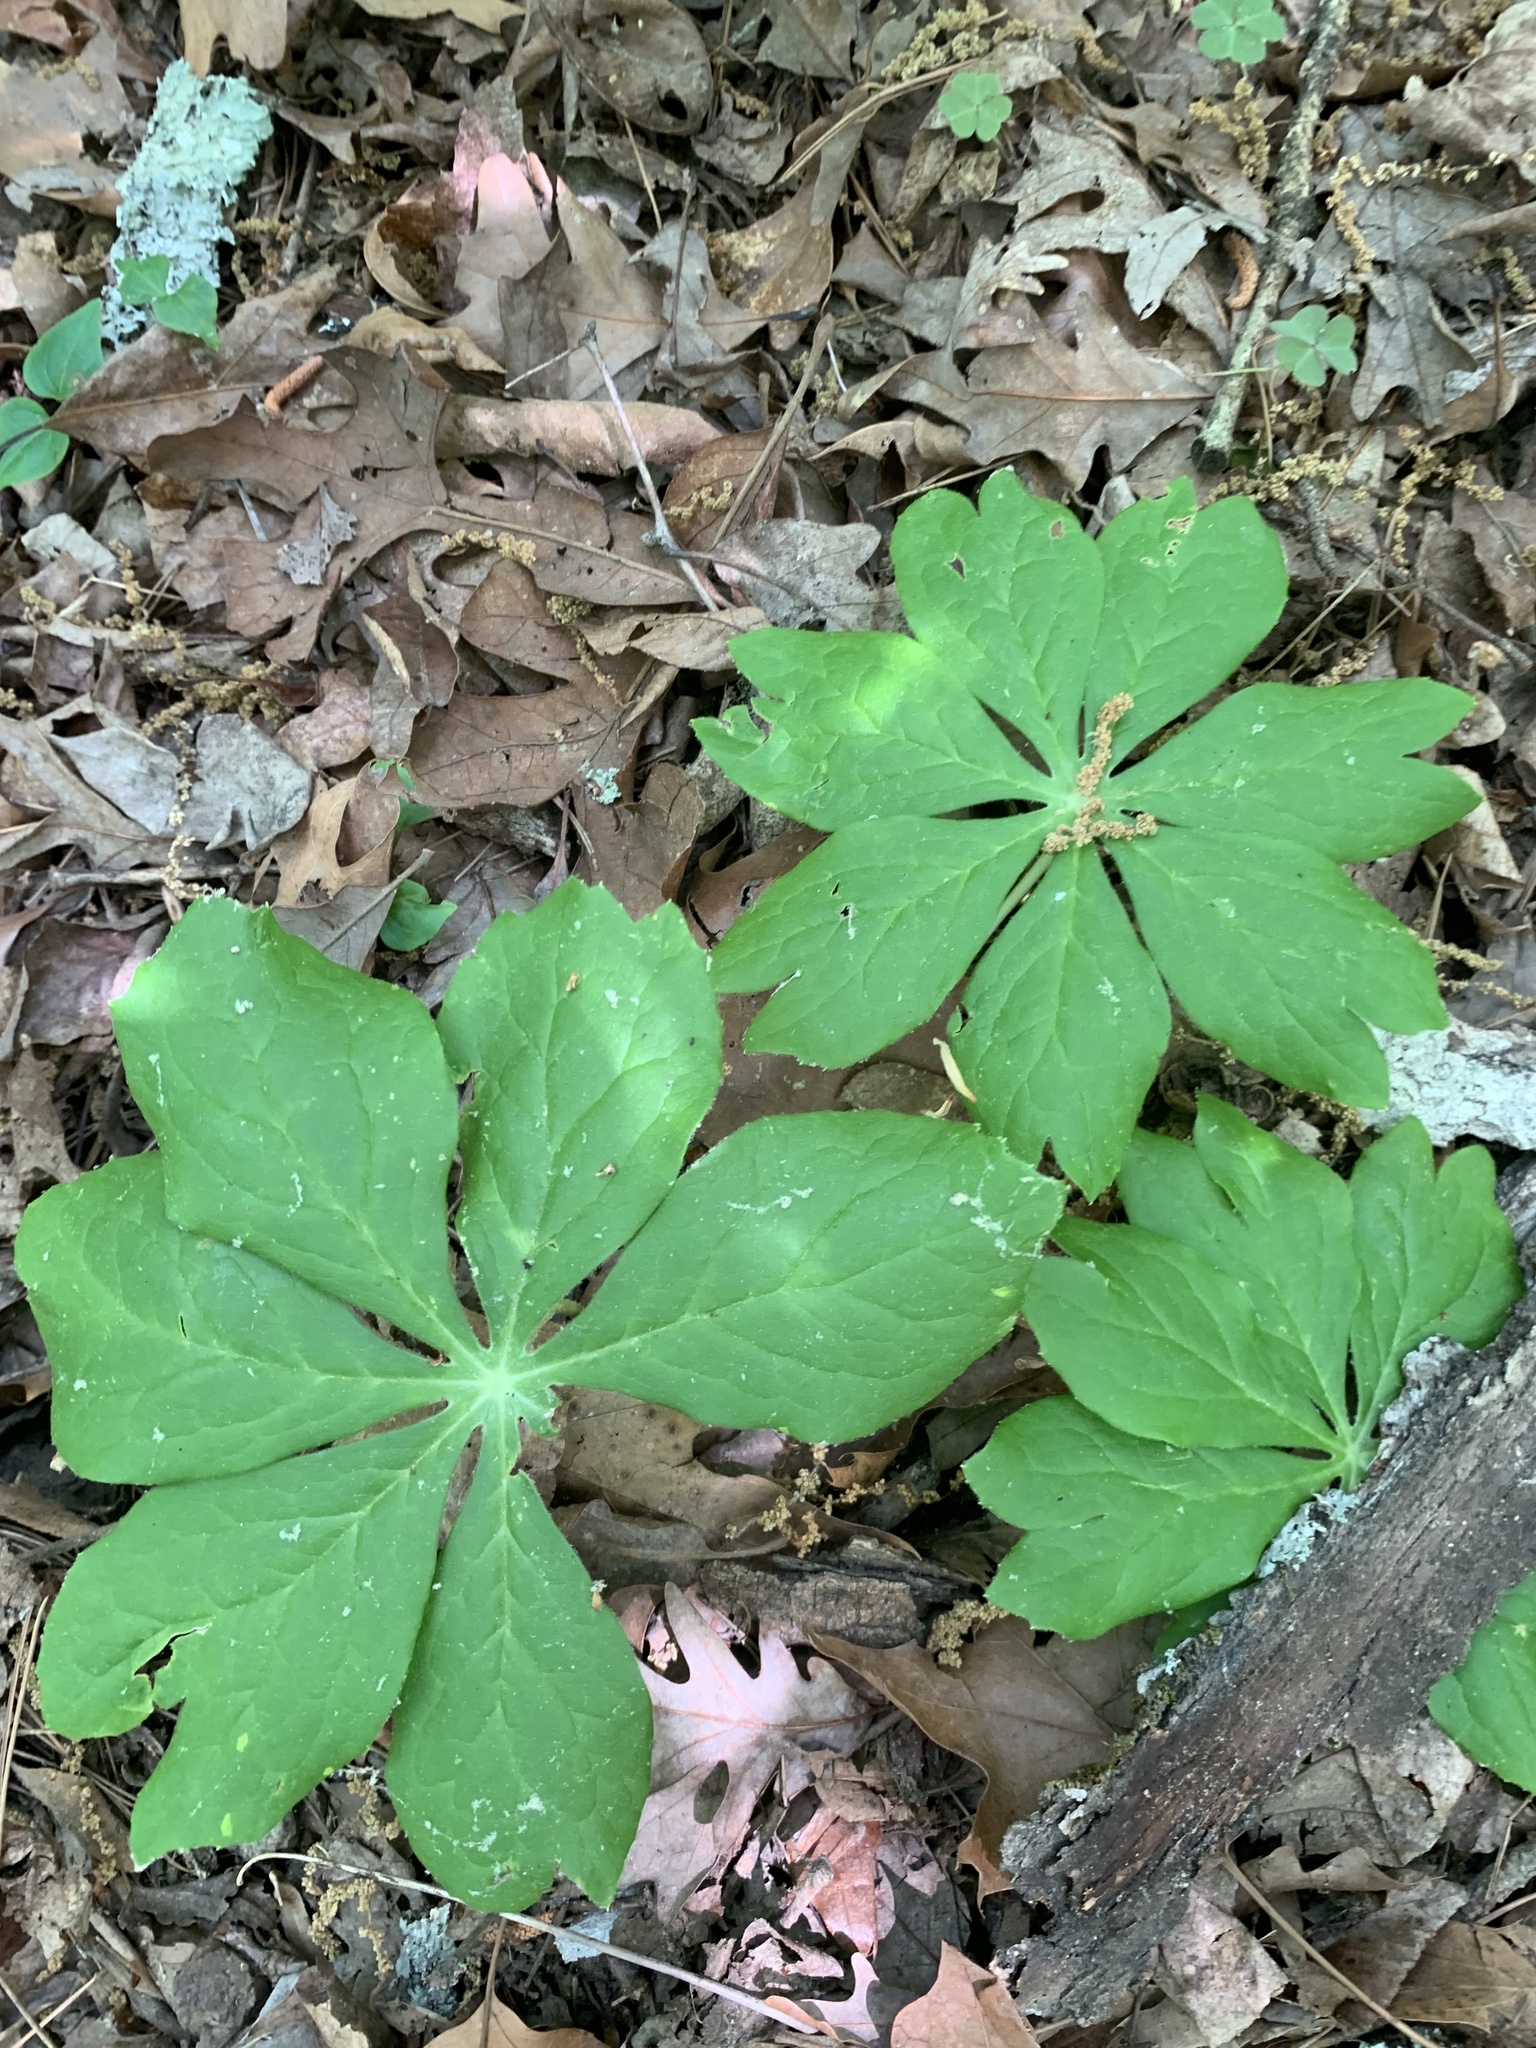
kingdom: Plantae
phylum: Tracheophyta
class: Magnoliopsida
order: Ranunculales
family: Berberidaceae
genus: Podophyllum
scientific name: Podophyllum peltatum
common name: Wild mandrake
